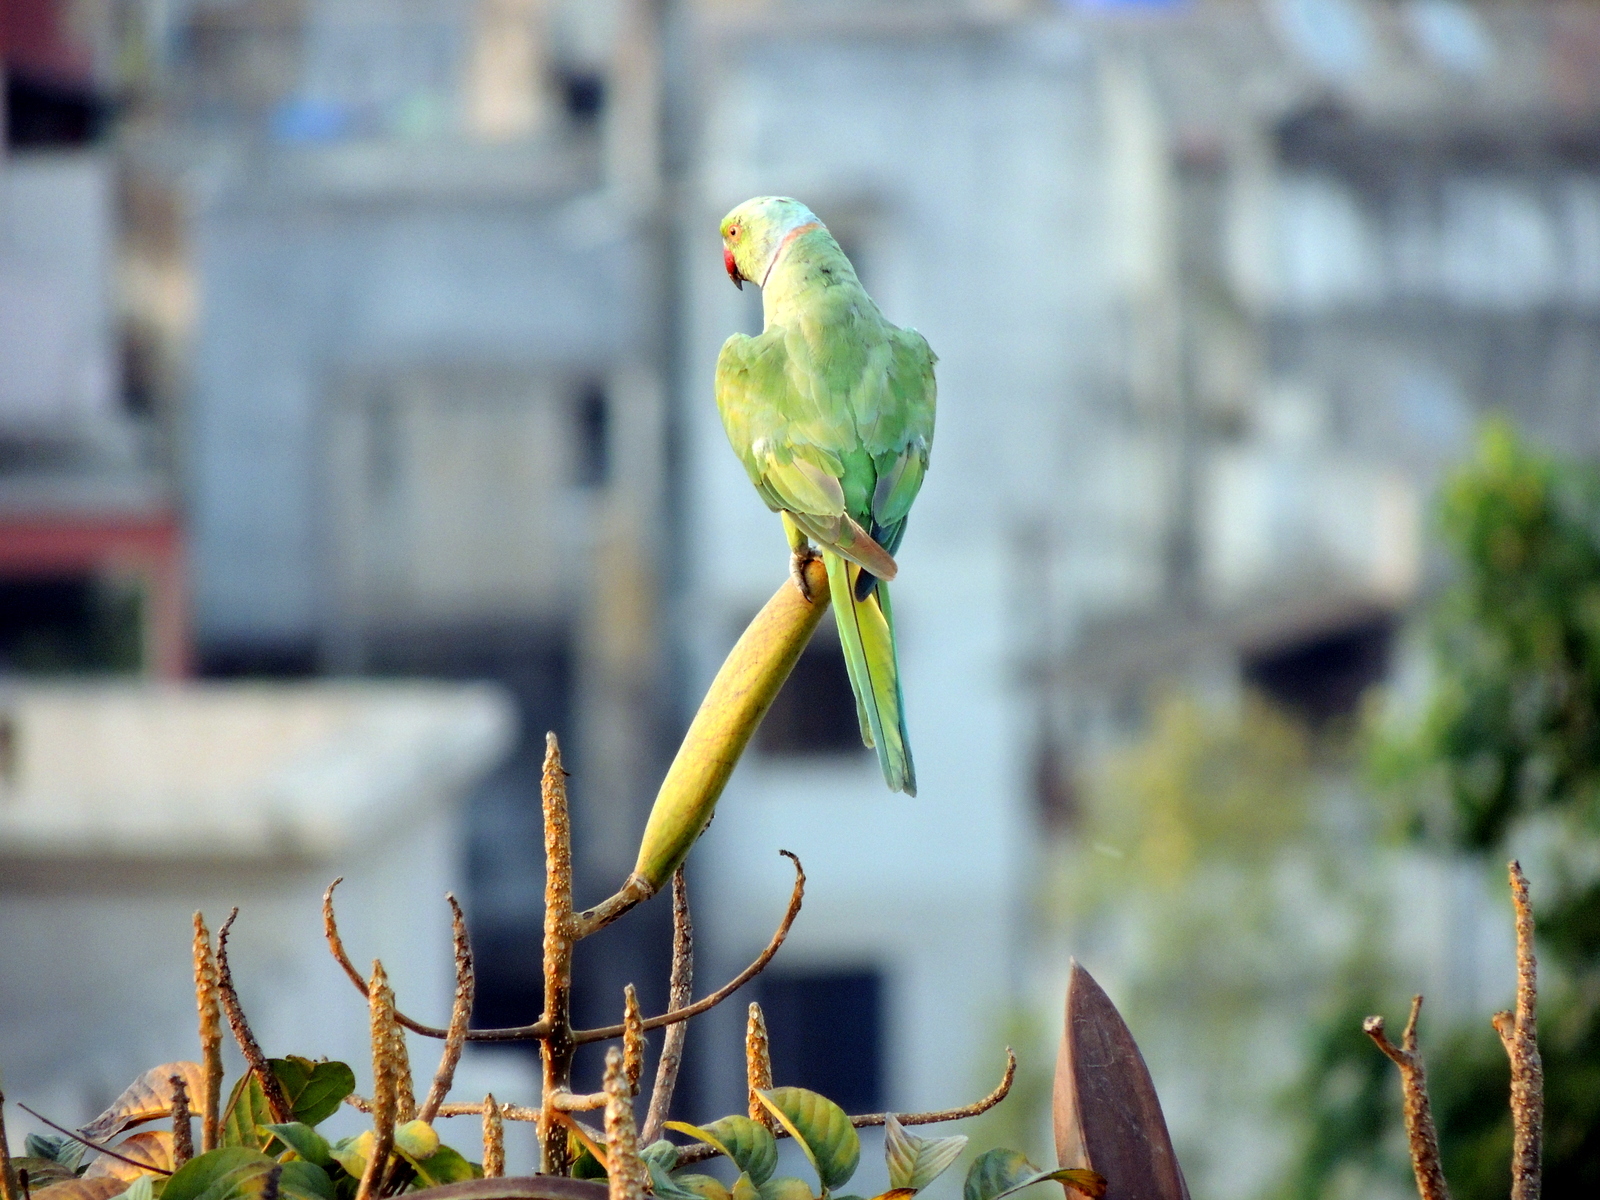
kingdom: Animalia
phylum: Chordata
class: Aves
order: Psittaciformes
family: Psittacidae
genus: Psittacula
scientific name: Psittacula krameri
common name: Rose-ringed parakeet
